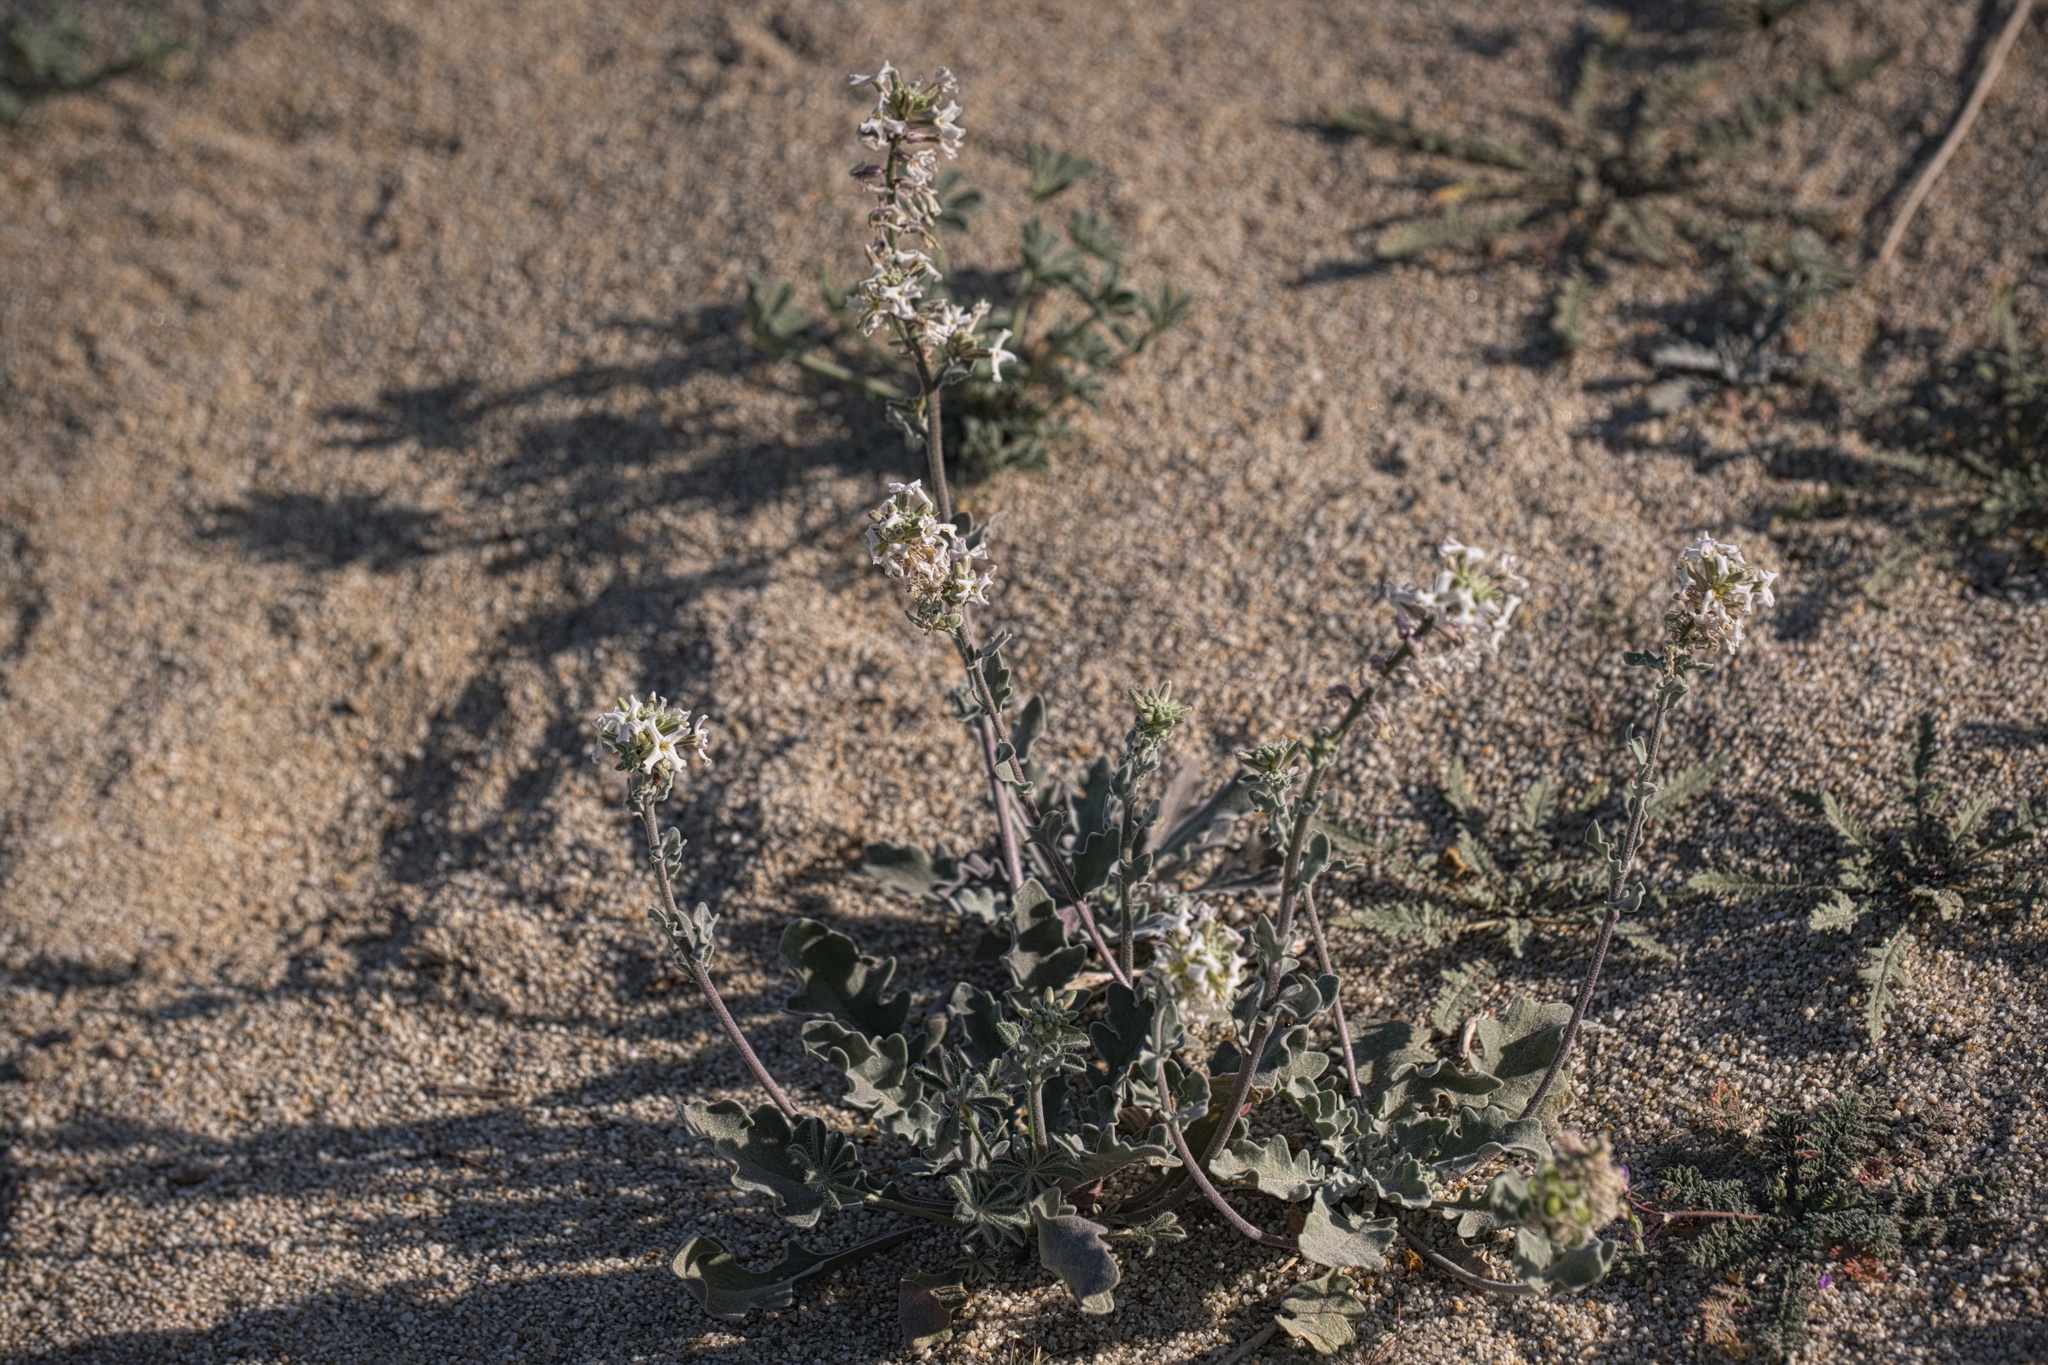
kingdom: Plantae
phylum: Tracheophyta
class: Magnoliopsida
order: Brassicales
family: Brassicaceae
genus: Dithyrea
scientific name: Dithyrea californica
